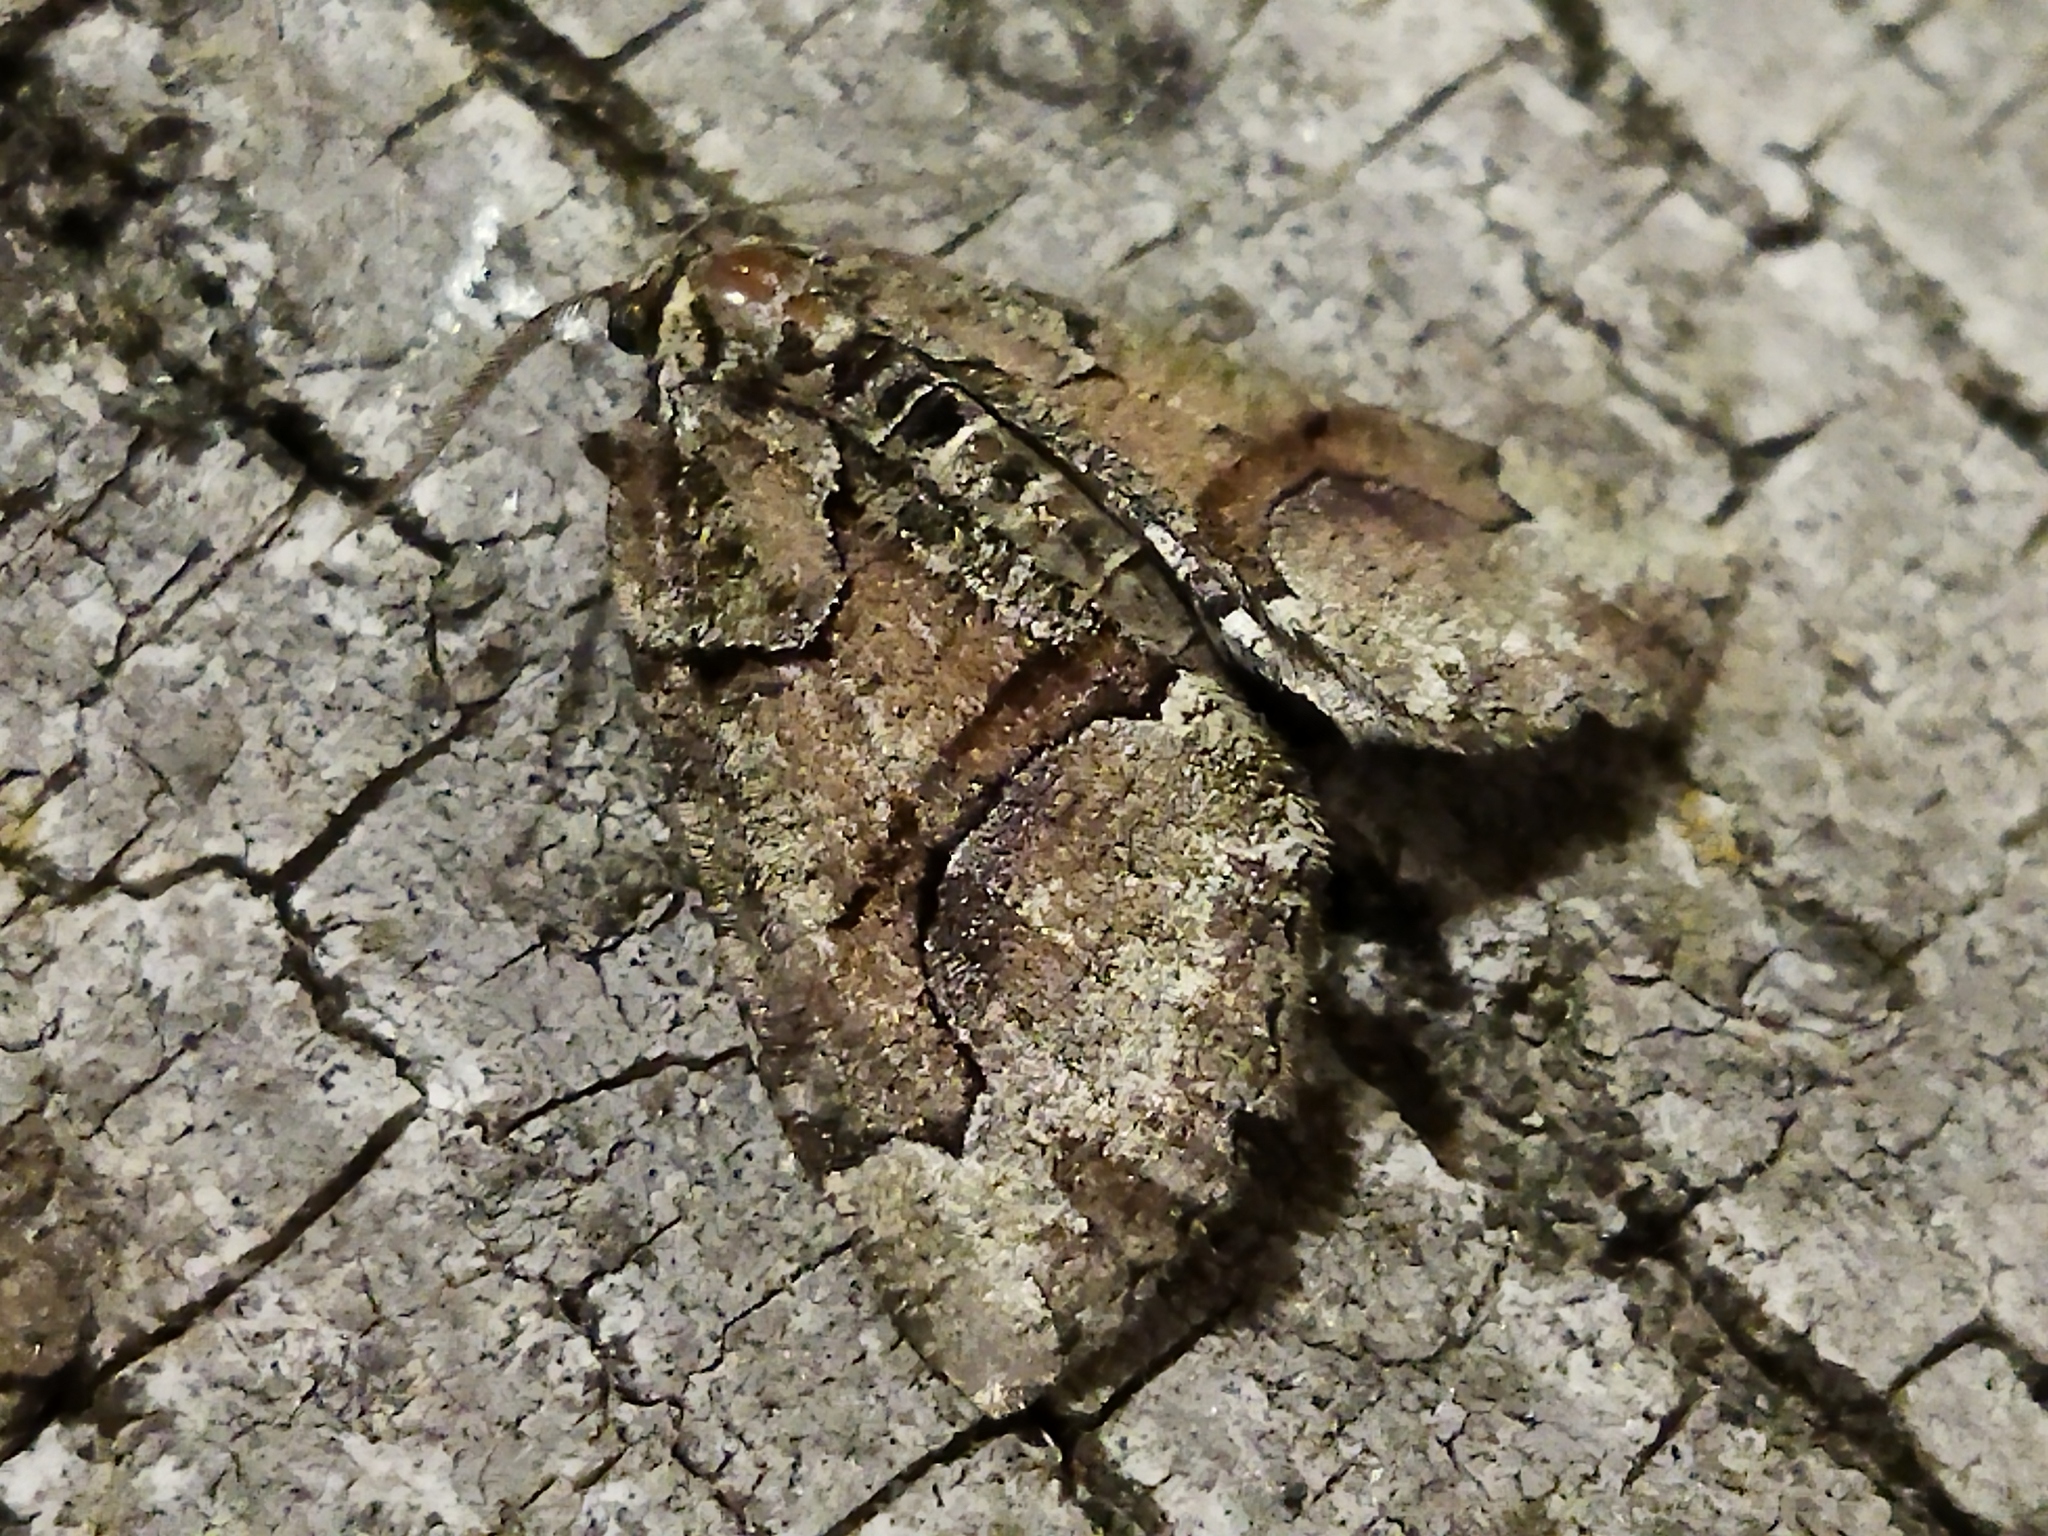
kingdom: Animalia
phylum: Arthropoda
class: Insecta
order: Lepidoptera
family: Geometridae
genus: Asovia
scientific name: Asovia maeoticaria
